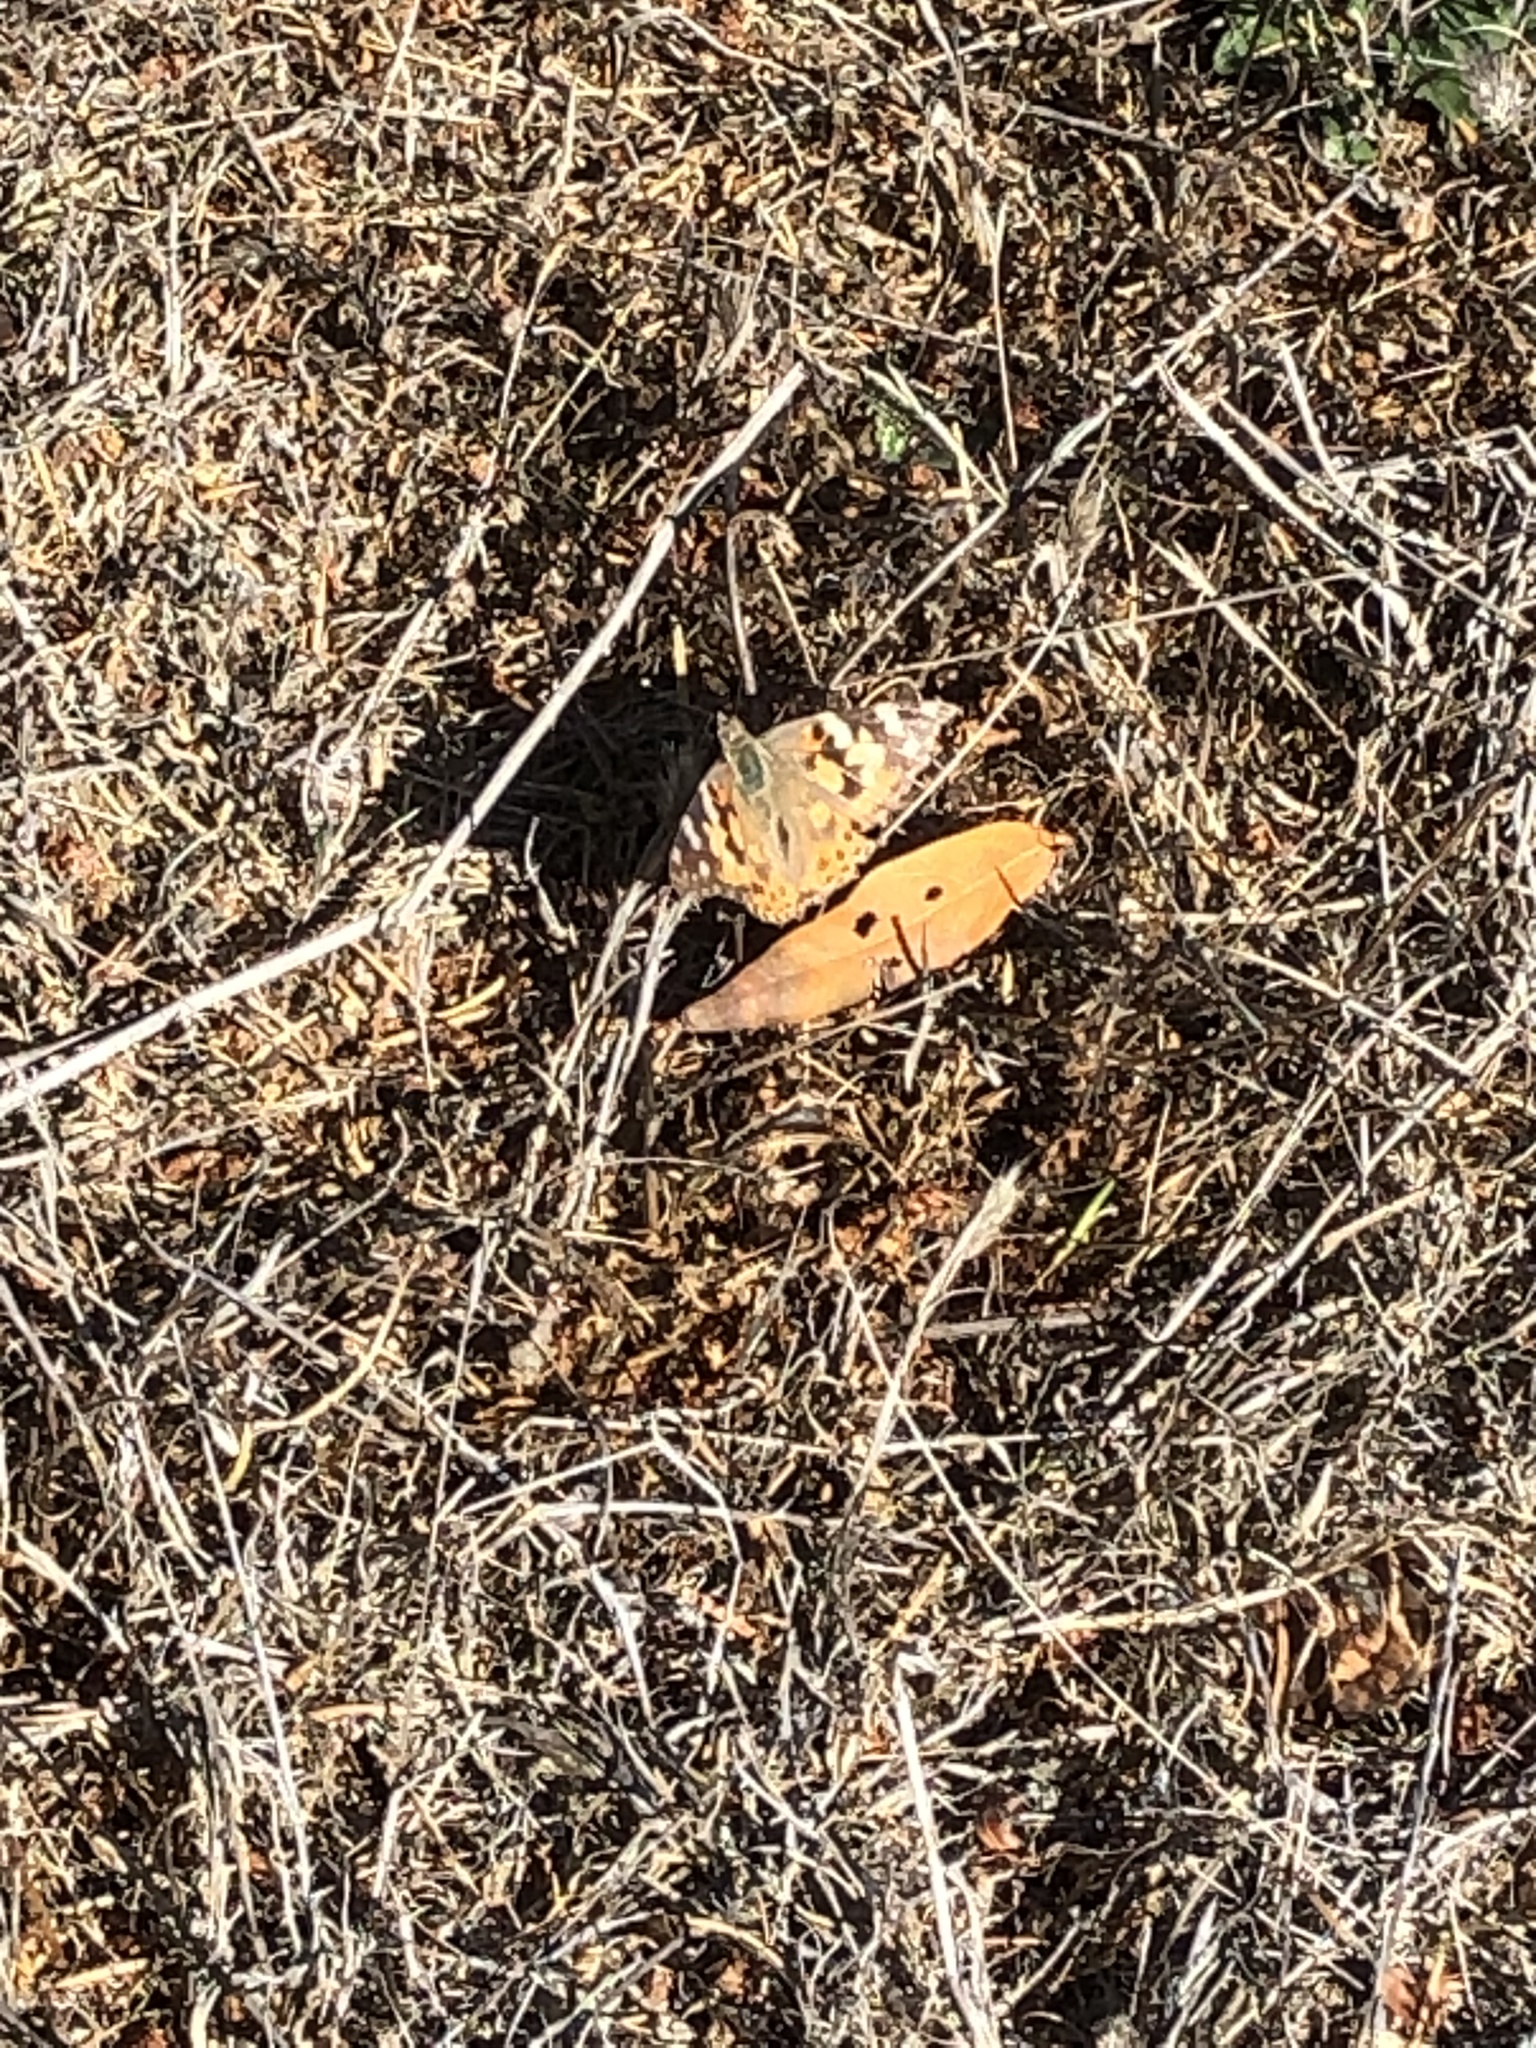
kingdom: Animalia
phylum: Arthropoda
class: Insecta
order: Lepidoptera
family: Nymphalidae
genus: Vanessa
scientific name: Vanessa cardui
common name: Painted lady
